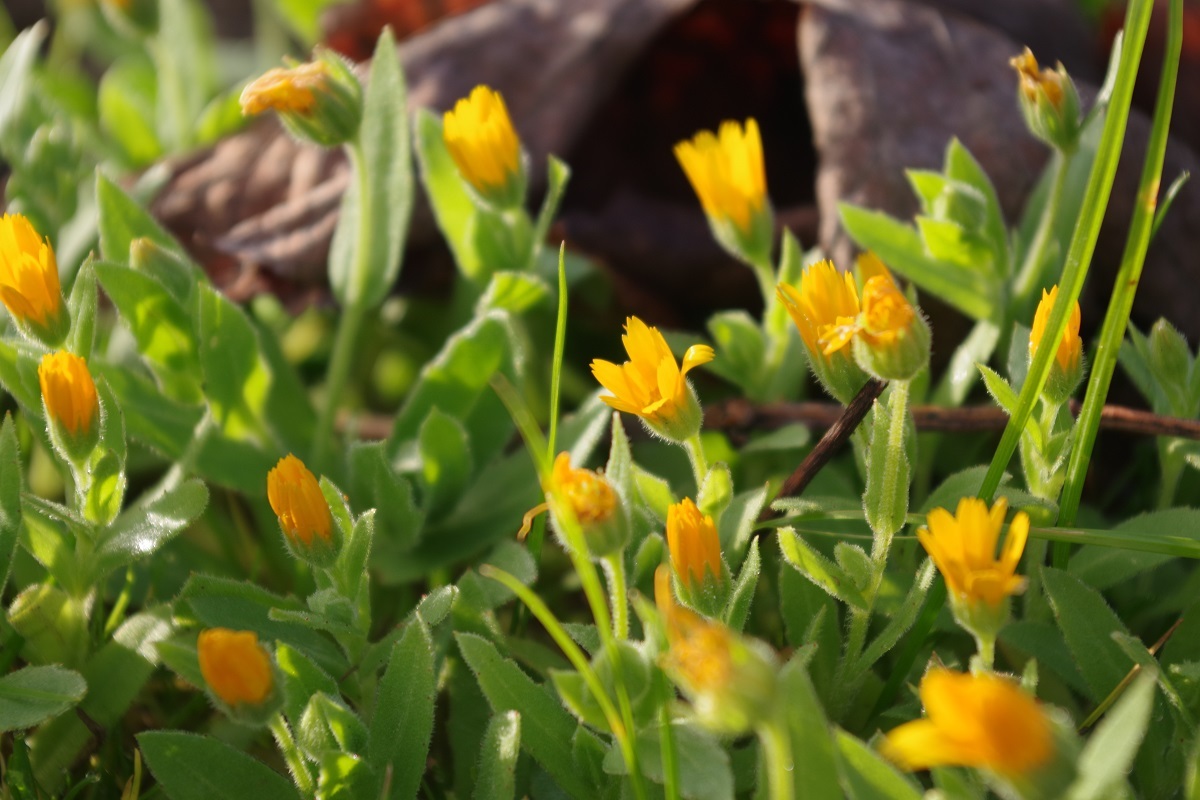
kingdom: Plantae
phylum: Tracheophyta
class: Magnoliopsida
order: Asterales
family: Asteraceae
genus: Calendula
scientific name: Calendula arvensis
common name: Field marigold
